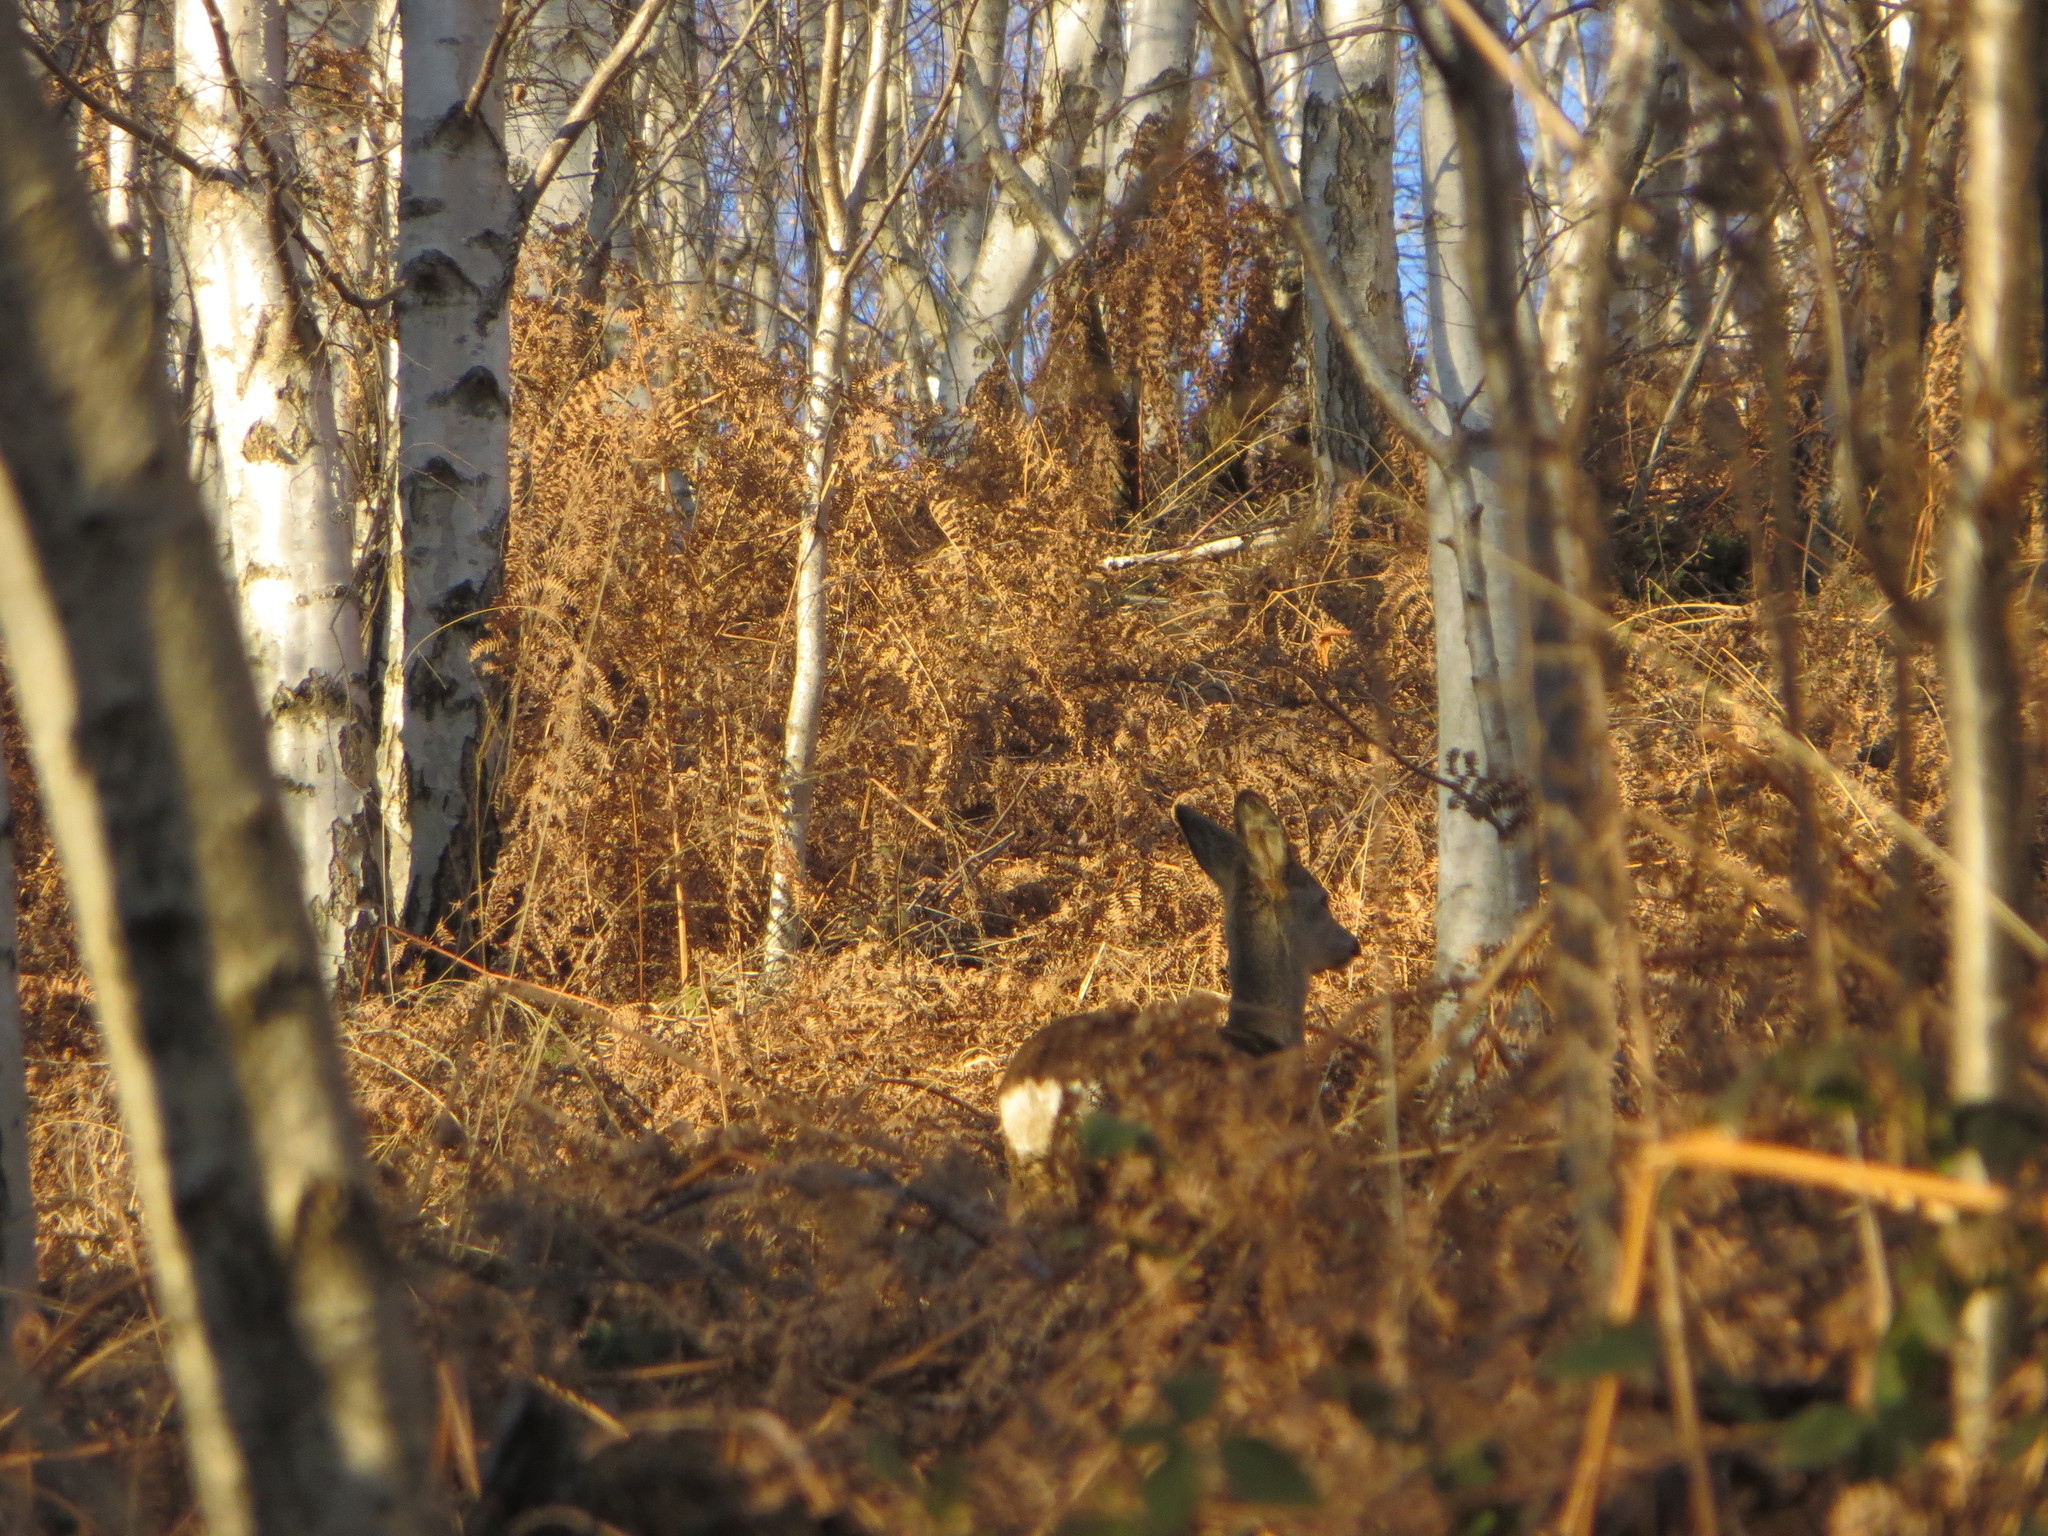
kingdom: Animalia
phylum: Chordata
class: Mammalia
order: Artiodactyla
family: Cervidae
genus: Capreolus
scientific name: Capreolus capreolus
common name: Western roe deer
